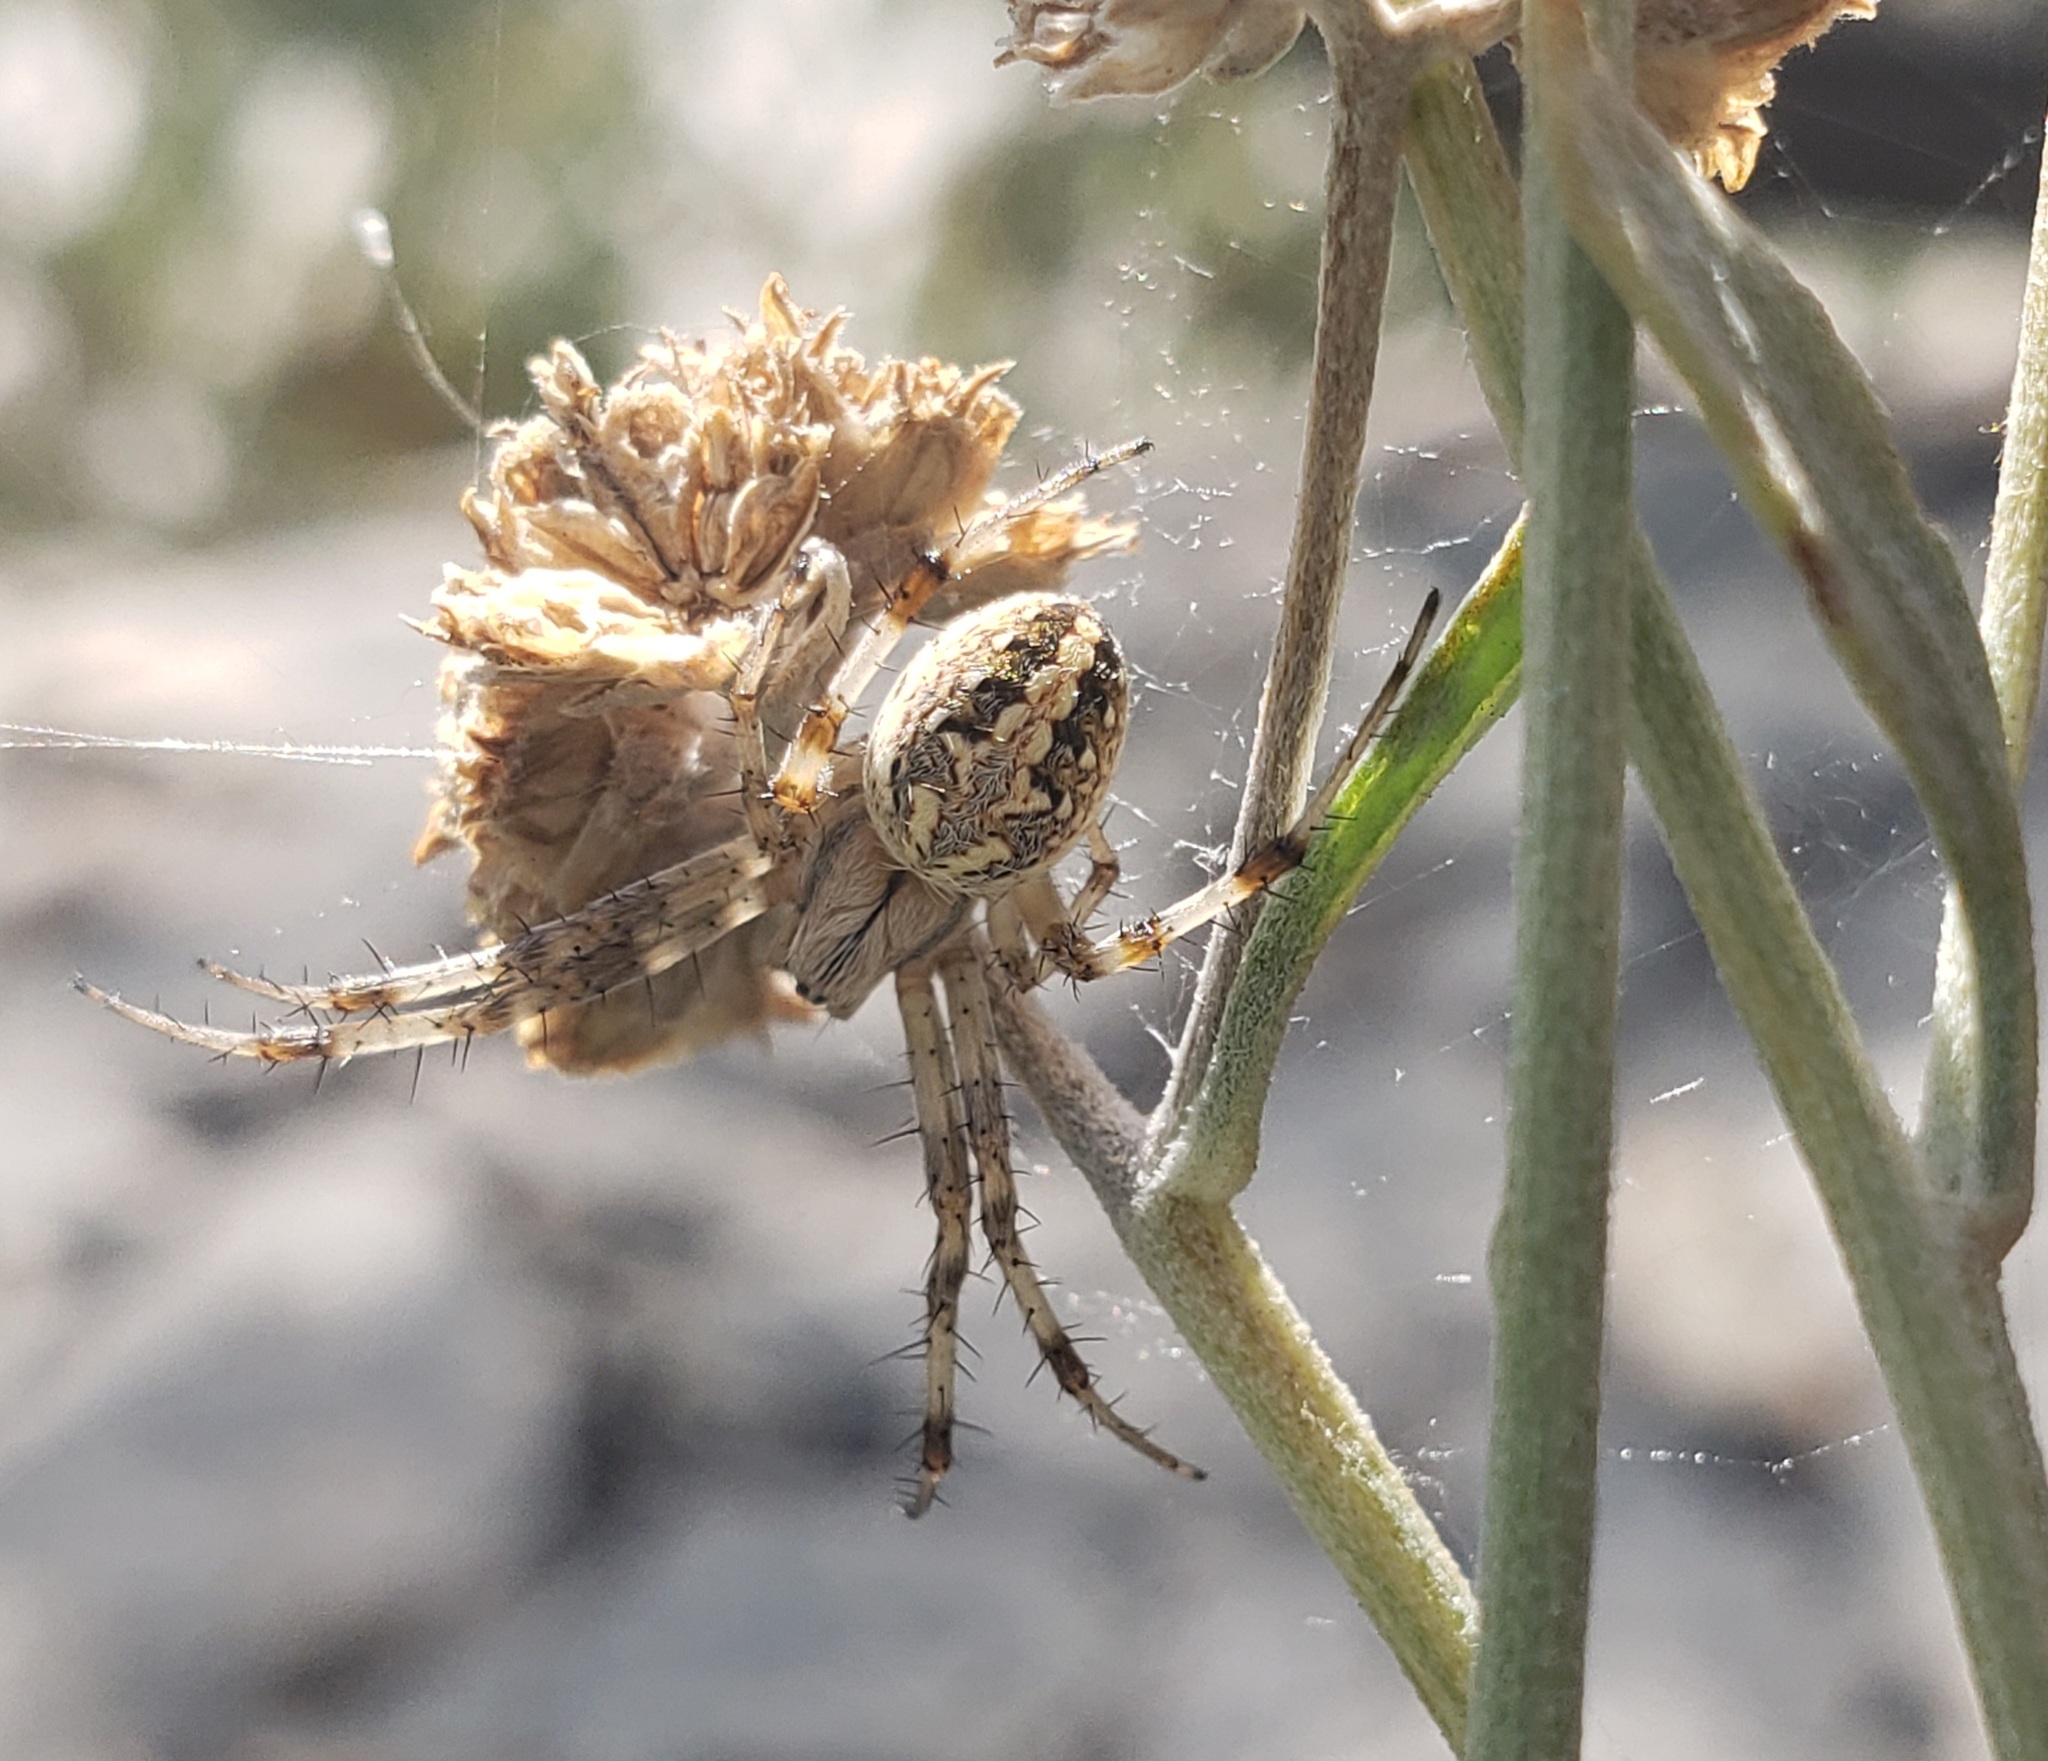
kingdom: Animalia
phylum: Arthropoda
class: Arachnida
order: Araneae
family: Araneidae
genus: Neoscona
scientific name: Neoscona oaxacensis
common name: Orb weavers
